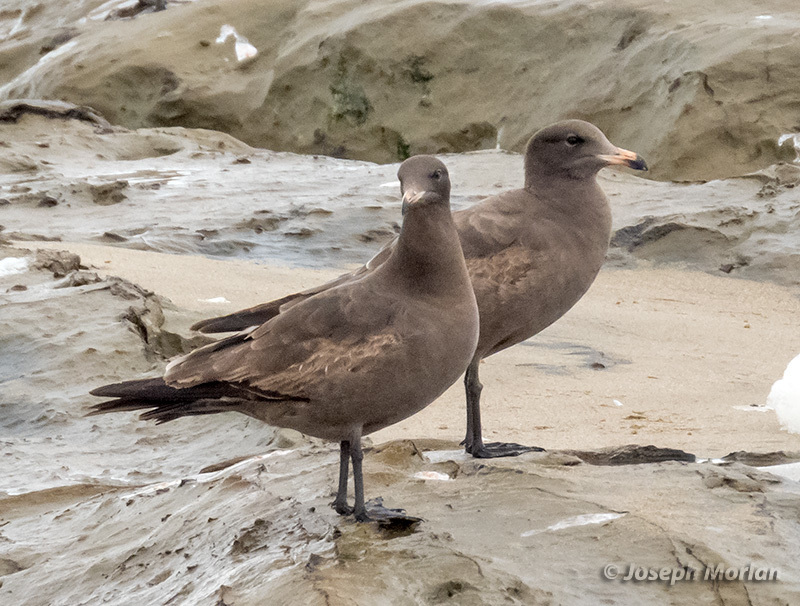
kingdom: Animalia
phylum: Chordata
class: Aves
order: Charadriiformes
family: Laridae
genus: Larus
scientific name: Larus heermanni
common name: Heermann's gull
